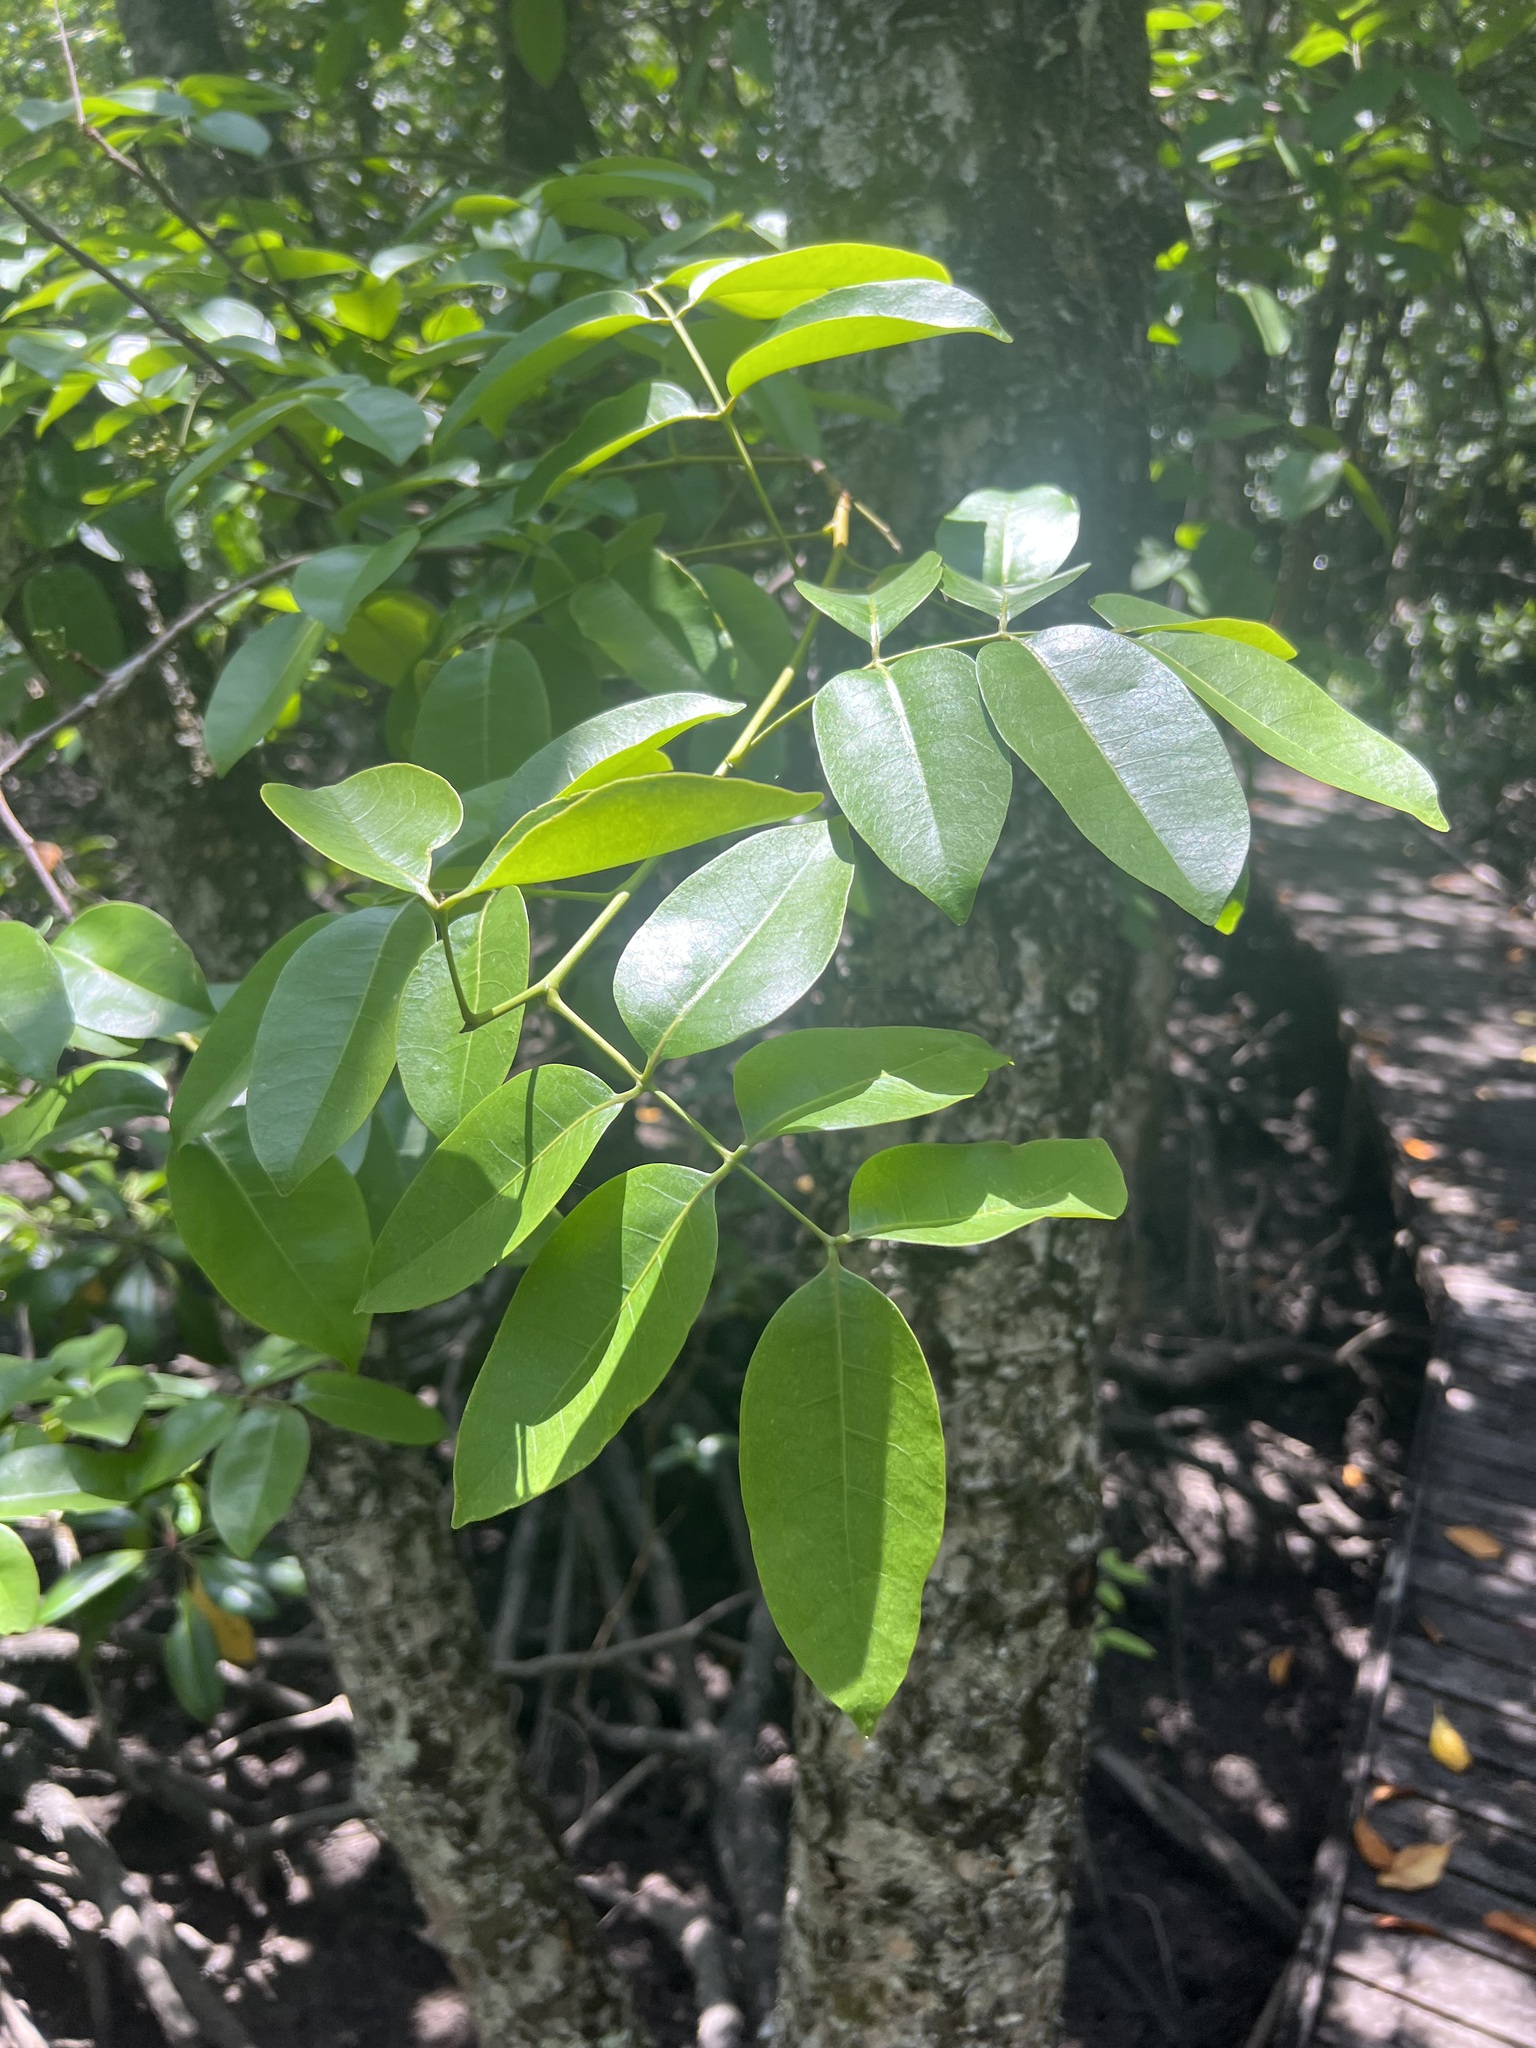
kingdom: Plantae
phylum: Tracheophyta
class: Magnoliopsida
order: Sapindales
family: Meliaceae
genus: Xylocarpus
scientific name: Xylocarpus moluccensis
